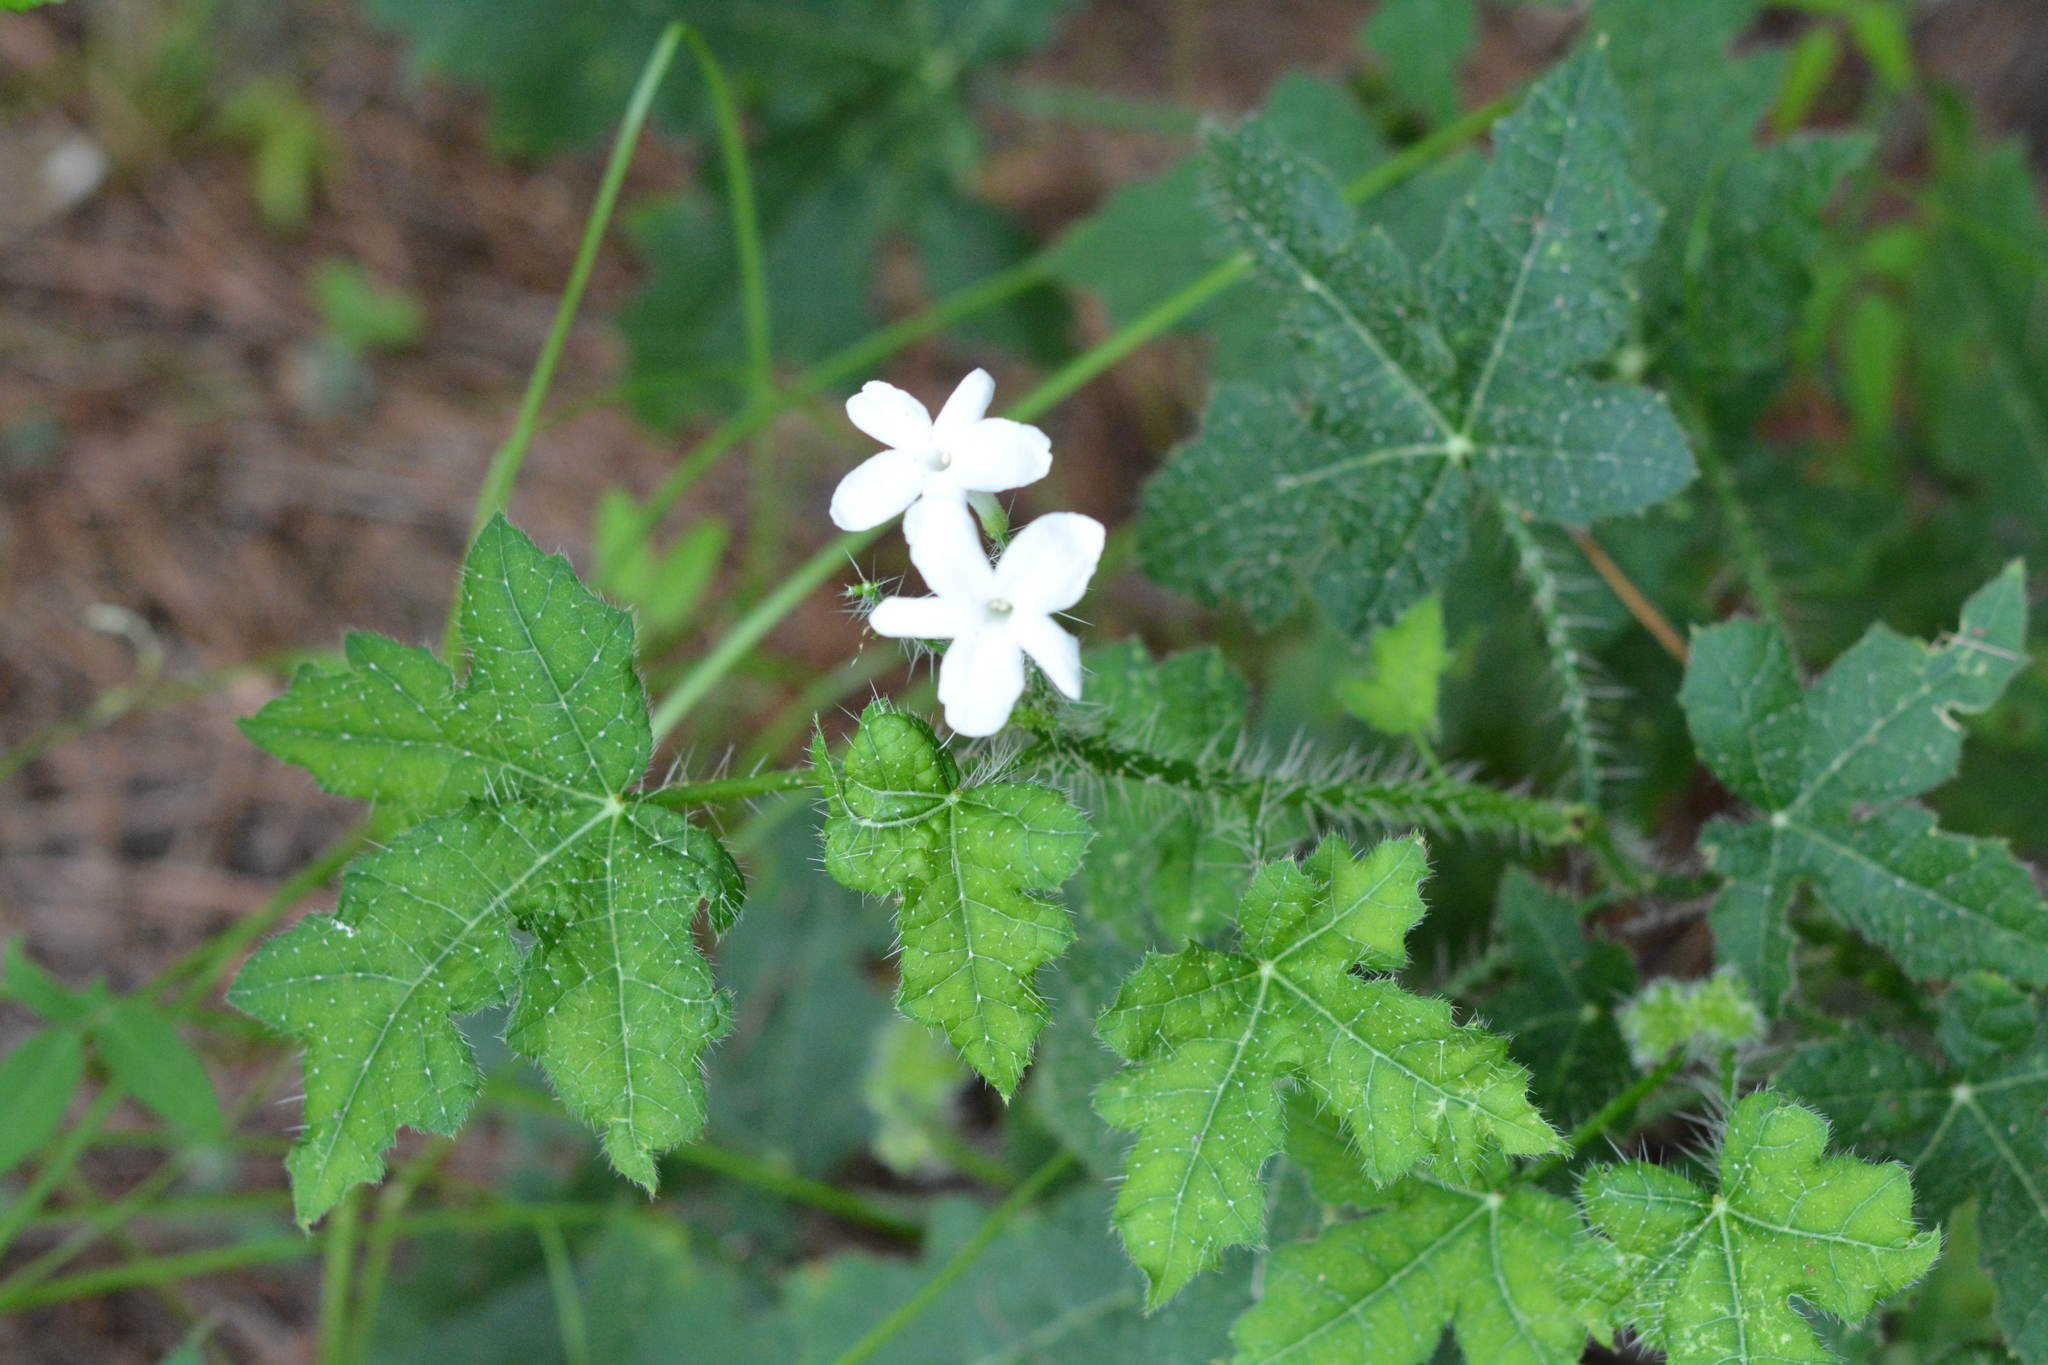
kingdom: Plantae
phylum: Tracheophyta
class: Magnoliopsida
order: Malpighiales
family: Euphorbiaceae
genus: Cnidoscolus
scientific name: Cnidoscolus texanus
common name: Texas bull-nettle
